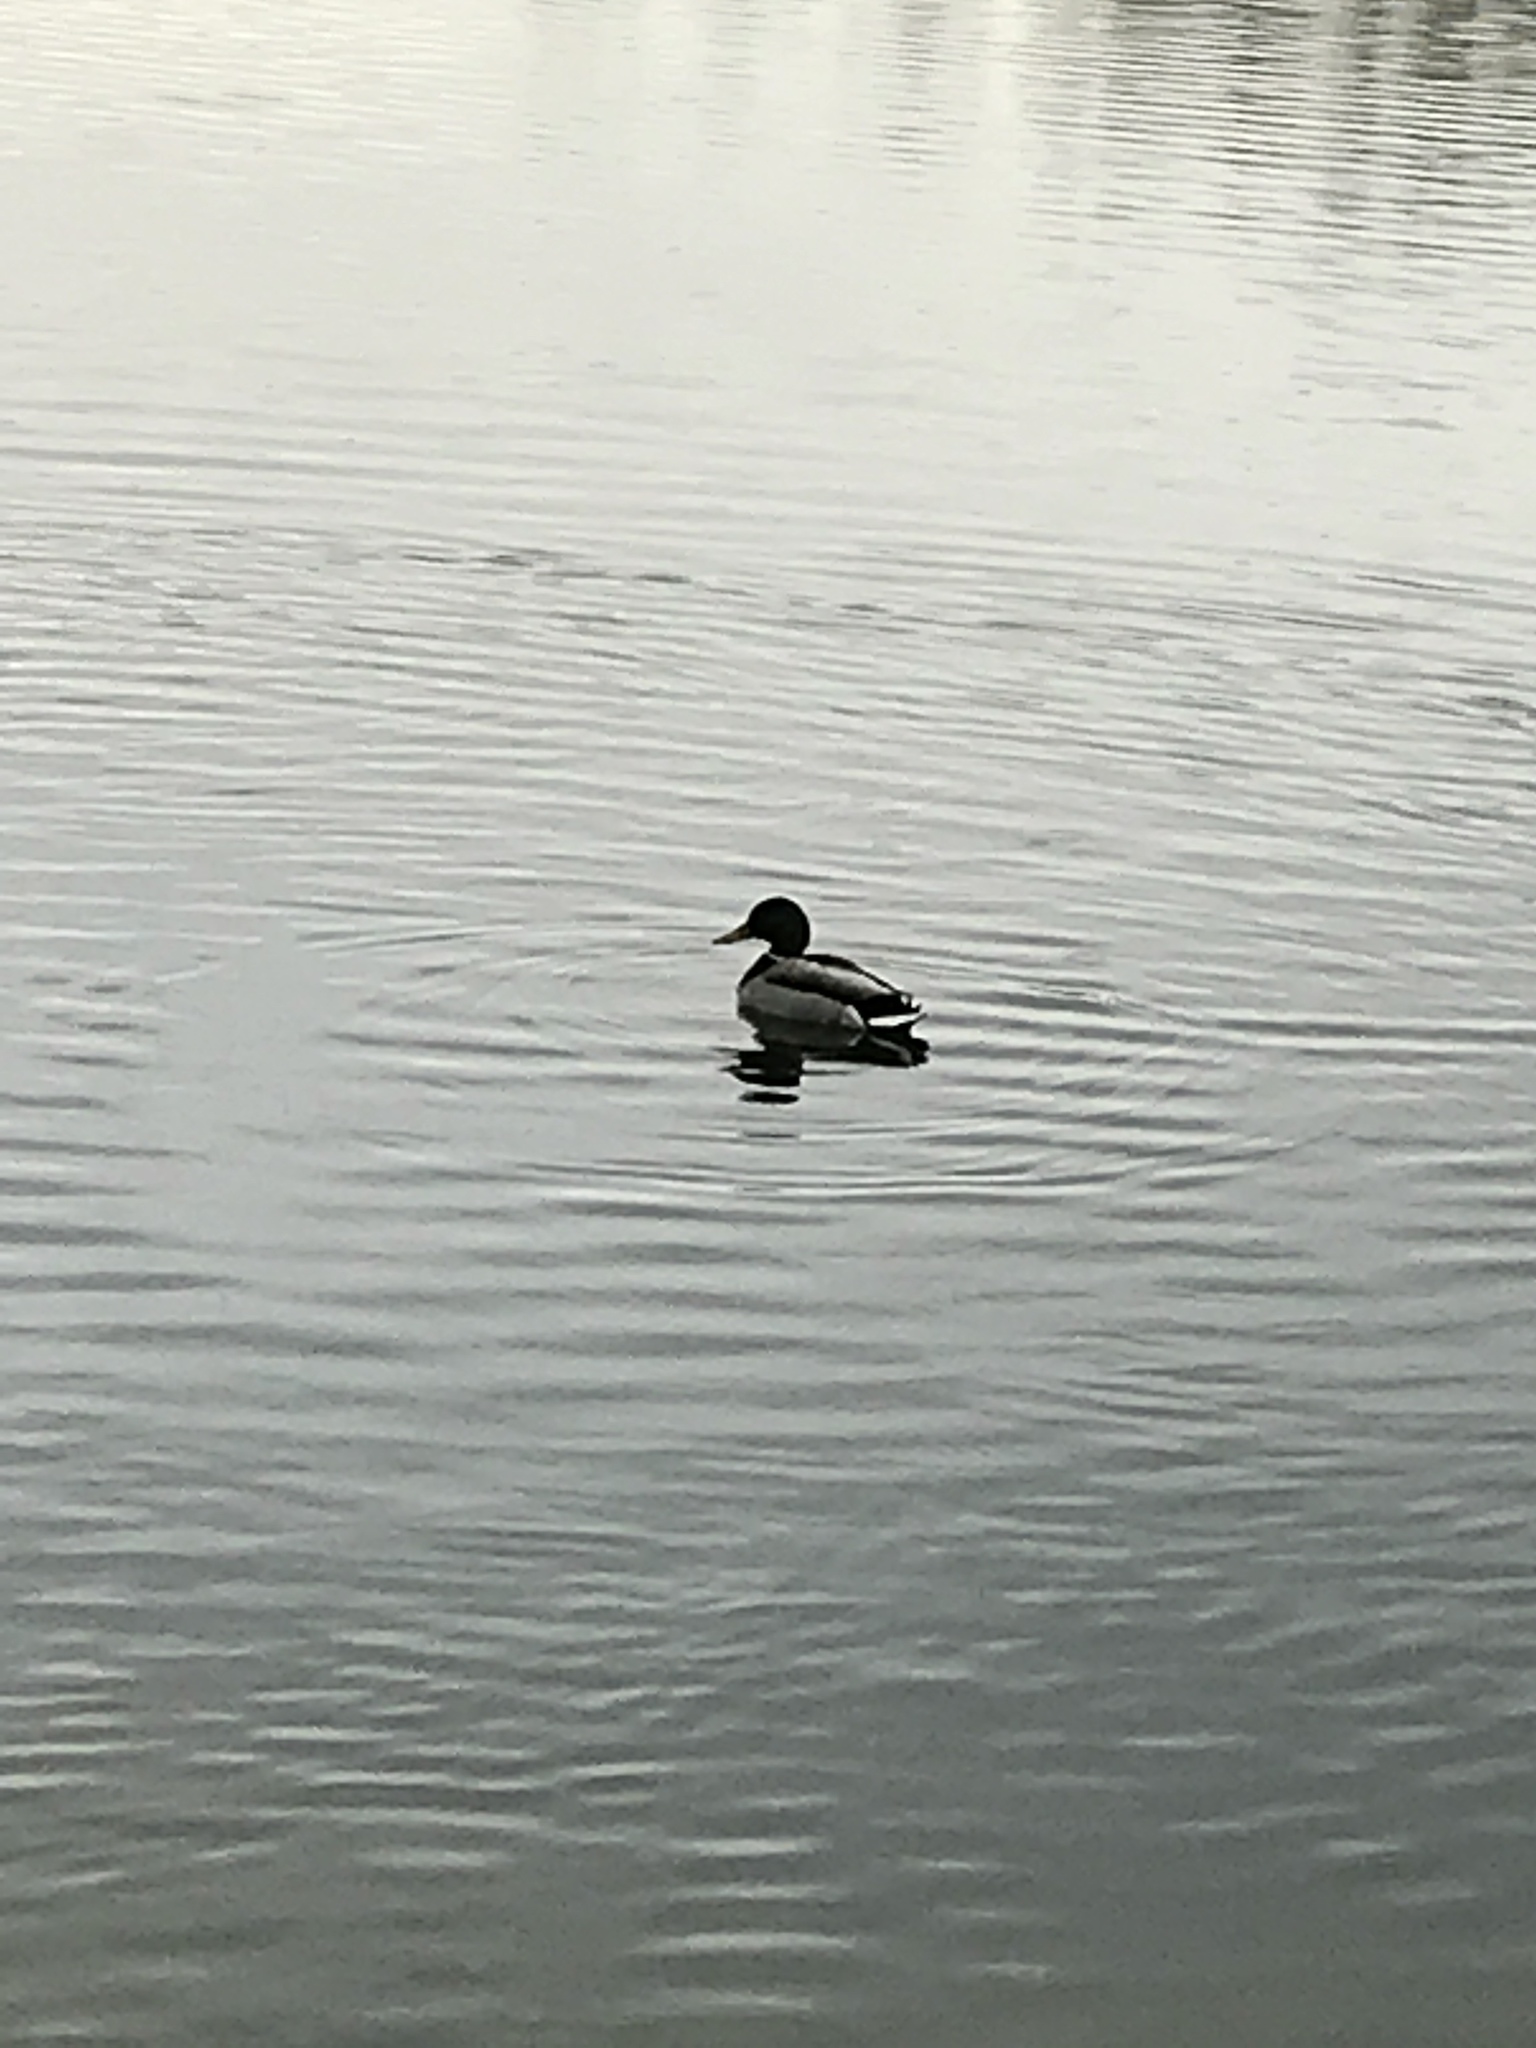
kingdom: Animalia
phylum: Chordata
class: Aves
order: Anseriformes
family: Anatidae
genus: Anas
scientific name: Anas platyrhynchos
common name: Mallard
